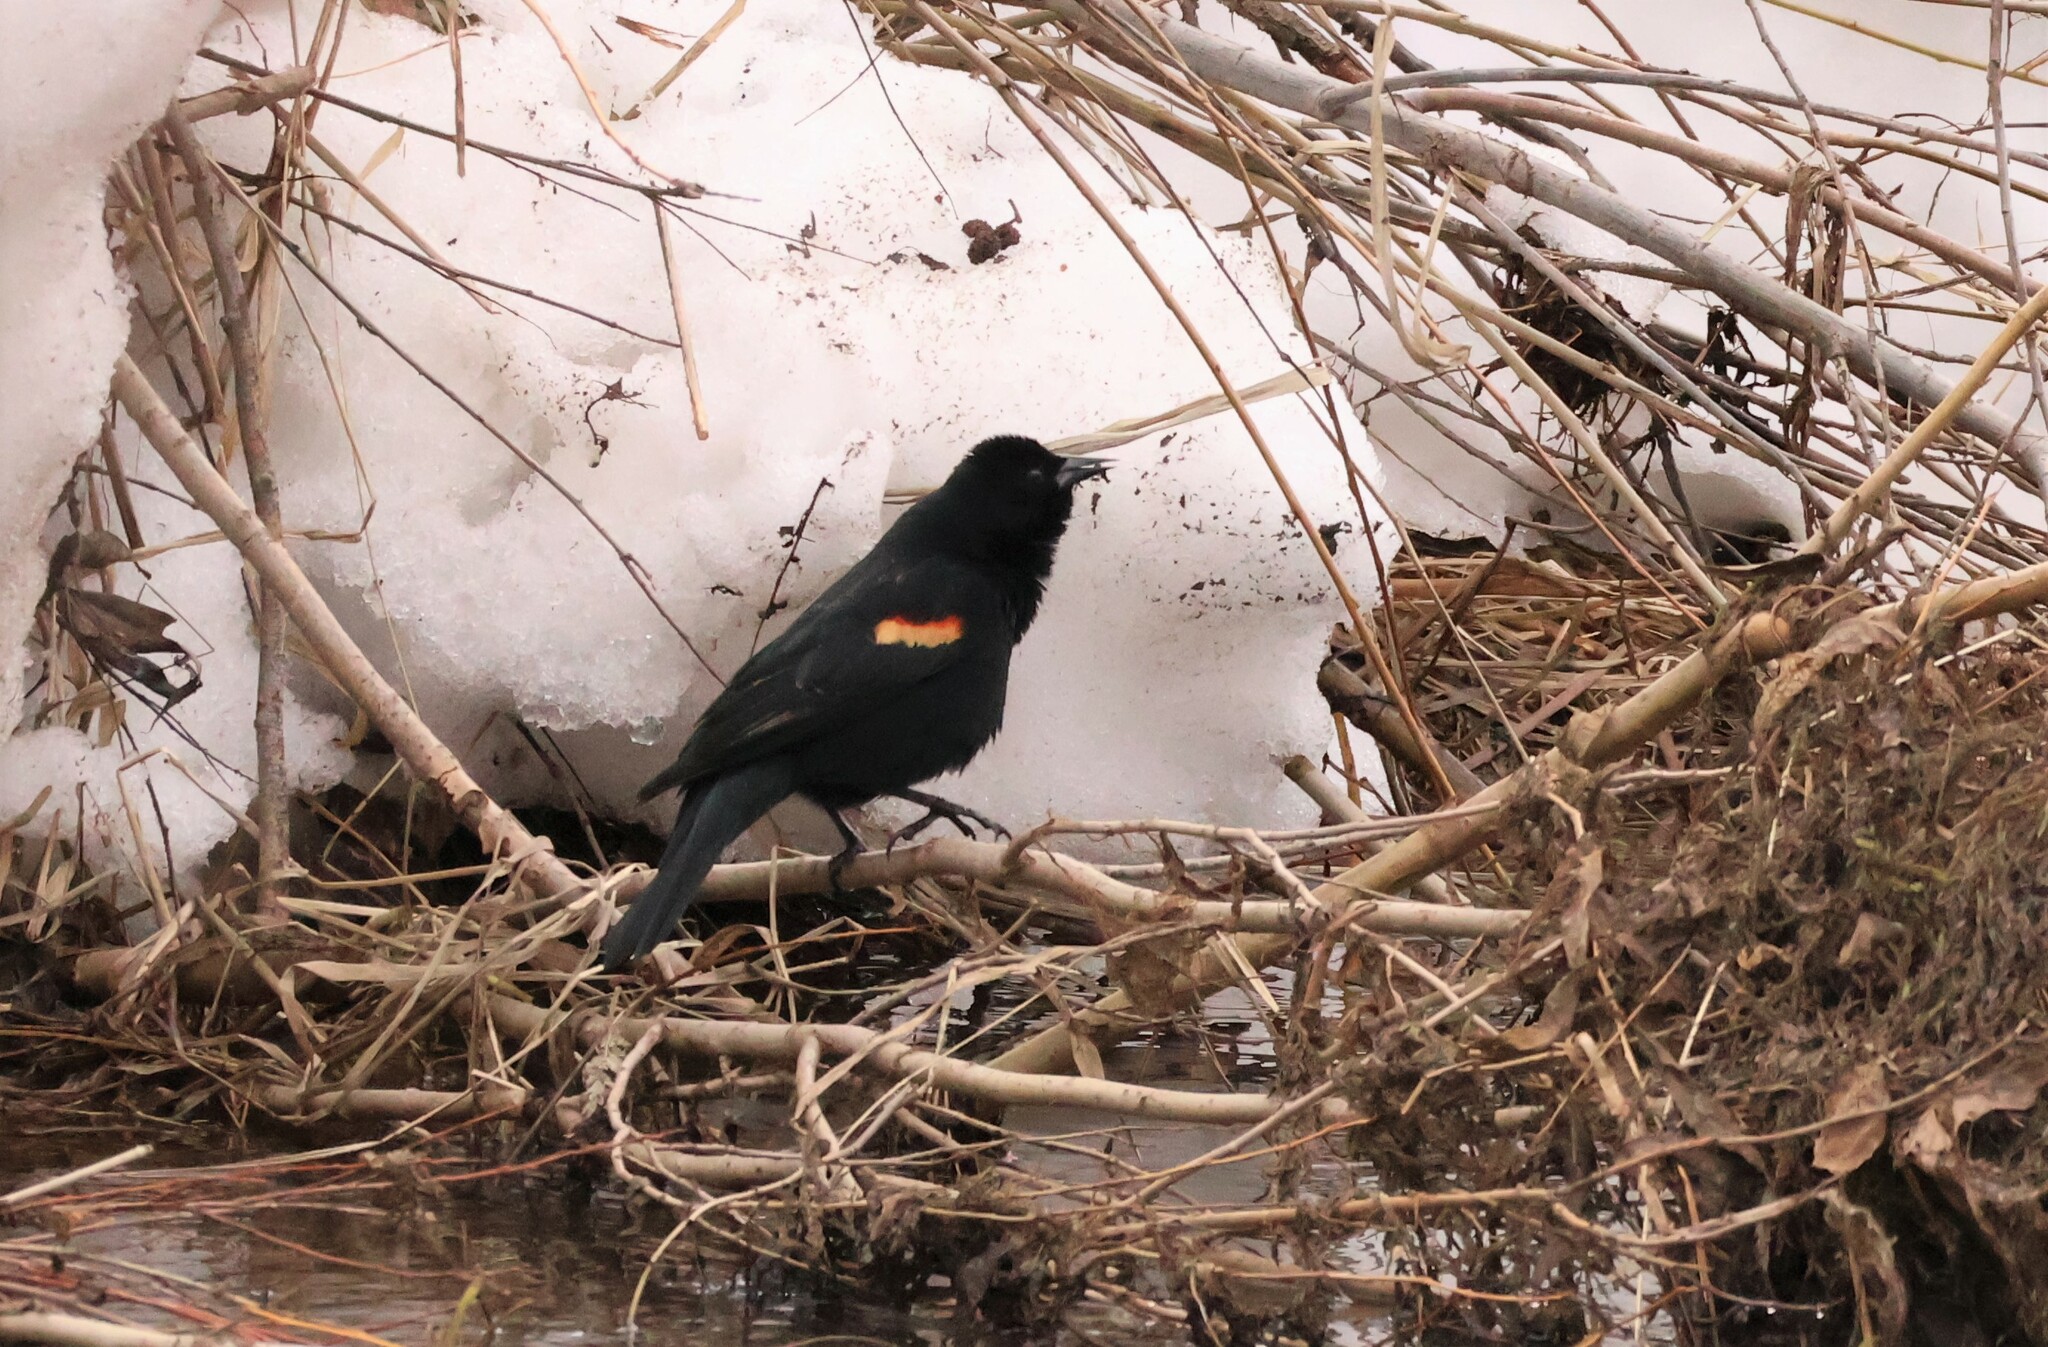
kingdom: Animalia
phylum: Chordata
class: Aves
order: Passeriformes
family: Icteridae
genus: Agelaius
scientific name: Agelaius phoeniceus
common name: Red-winged blackbird
